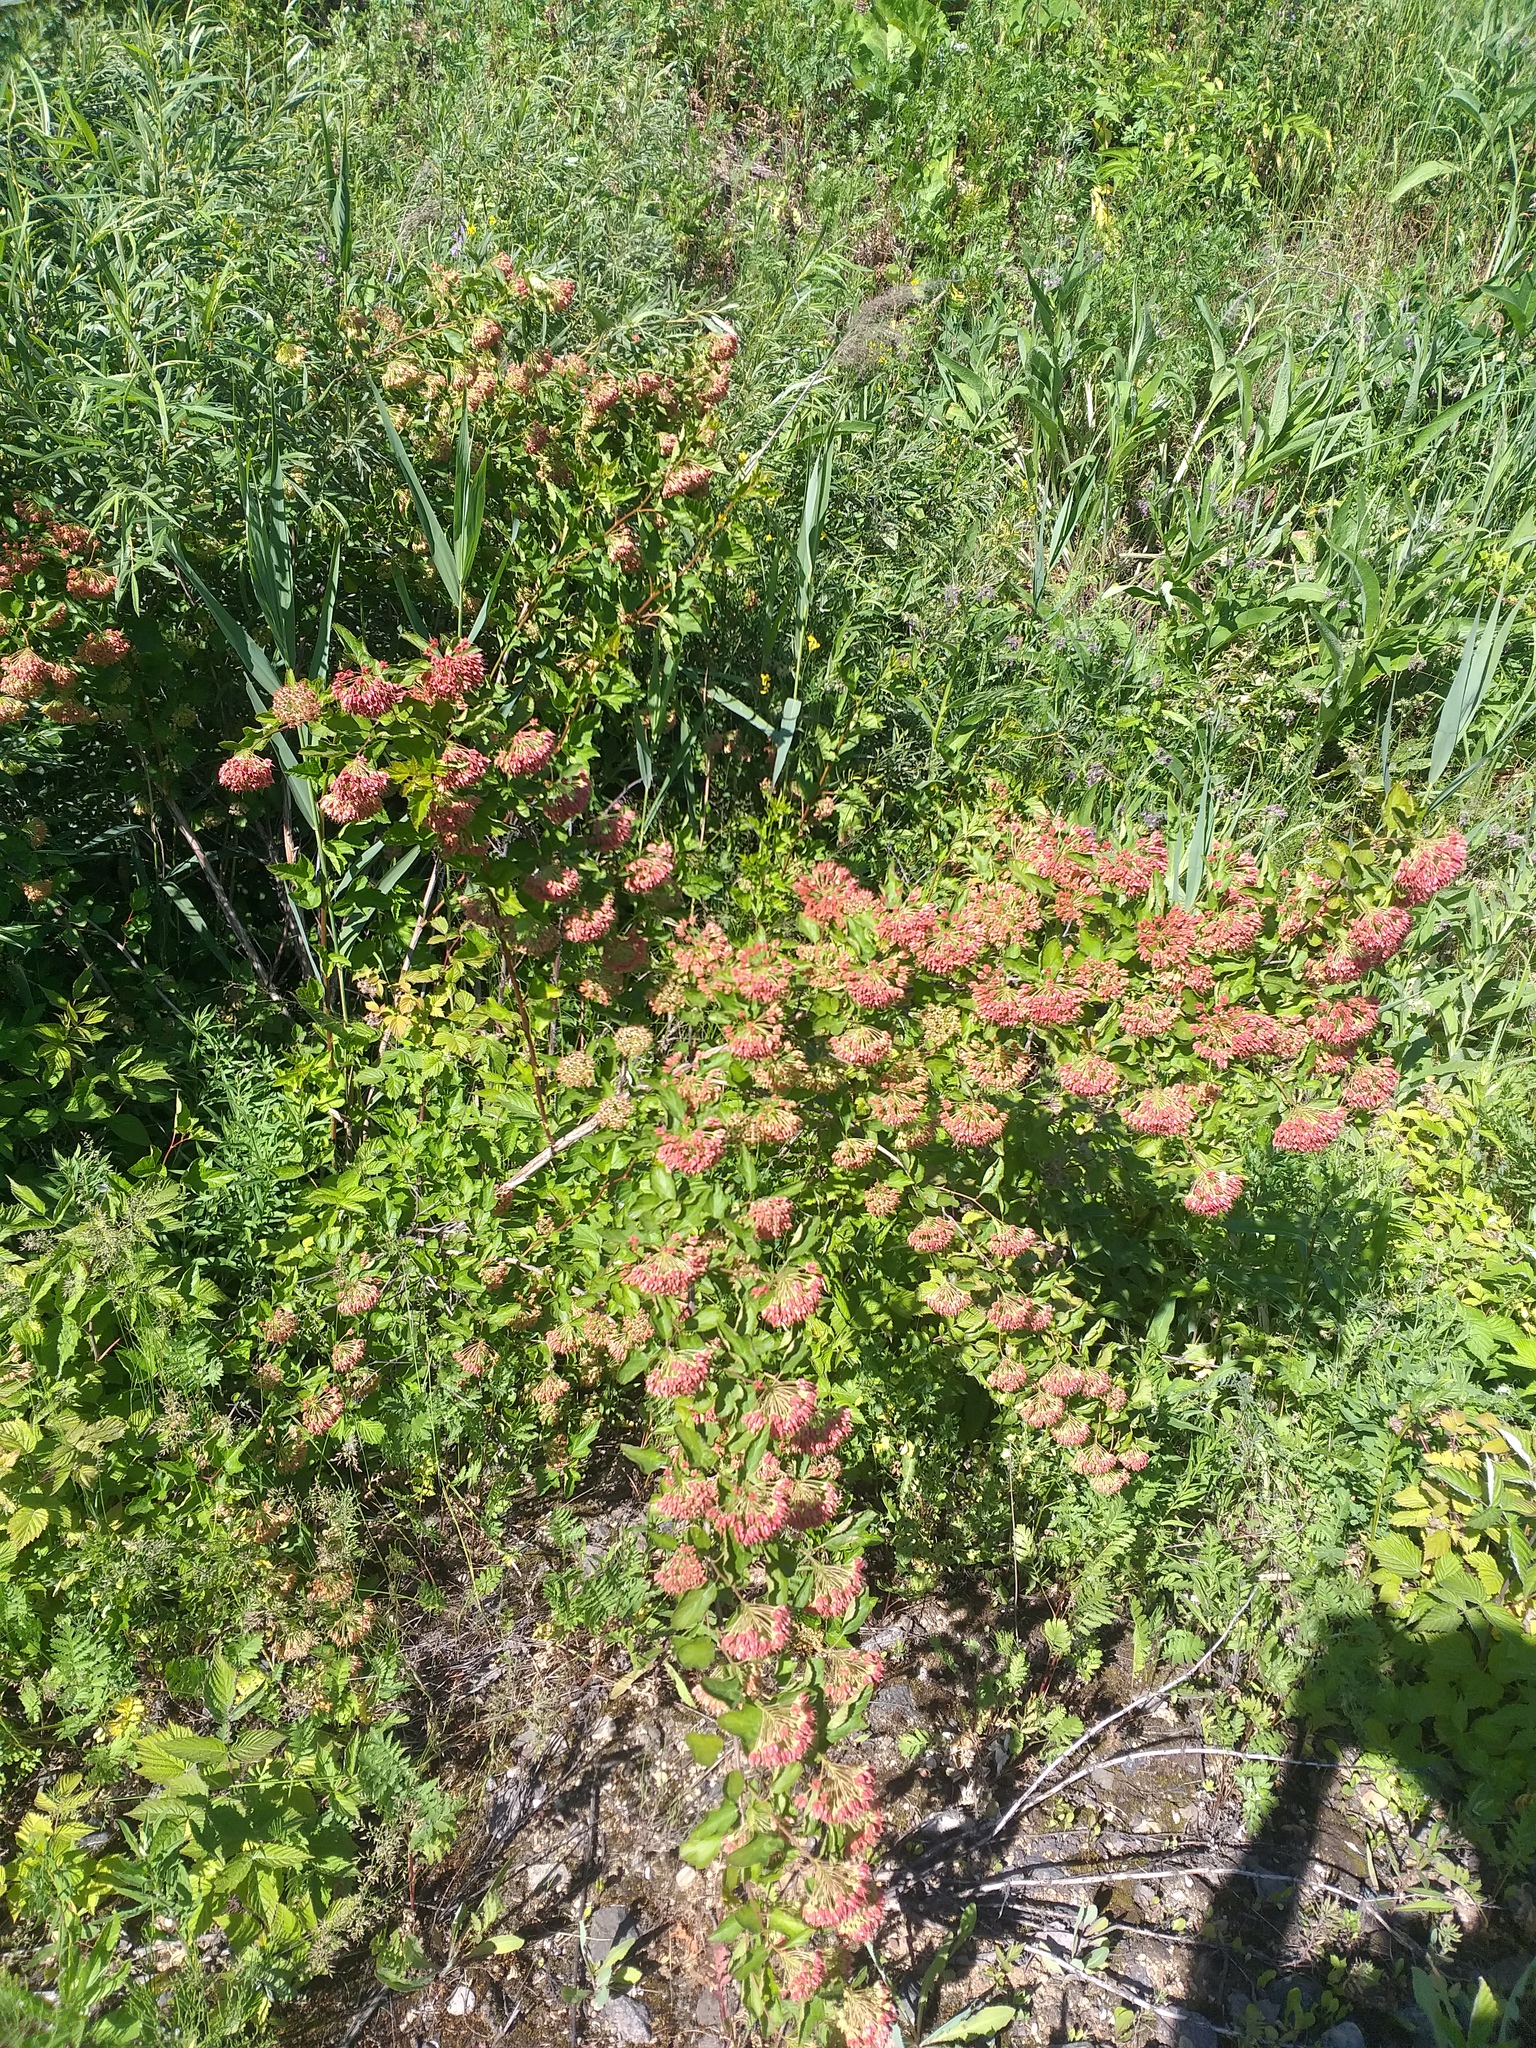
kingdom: Plantae
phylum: Tracheophyta
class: Magnoliopsida
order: Rosales
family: Rosaceae
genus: Physocarpus
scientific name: Physocarpus opulifolius
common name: Ninebark
